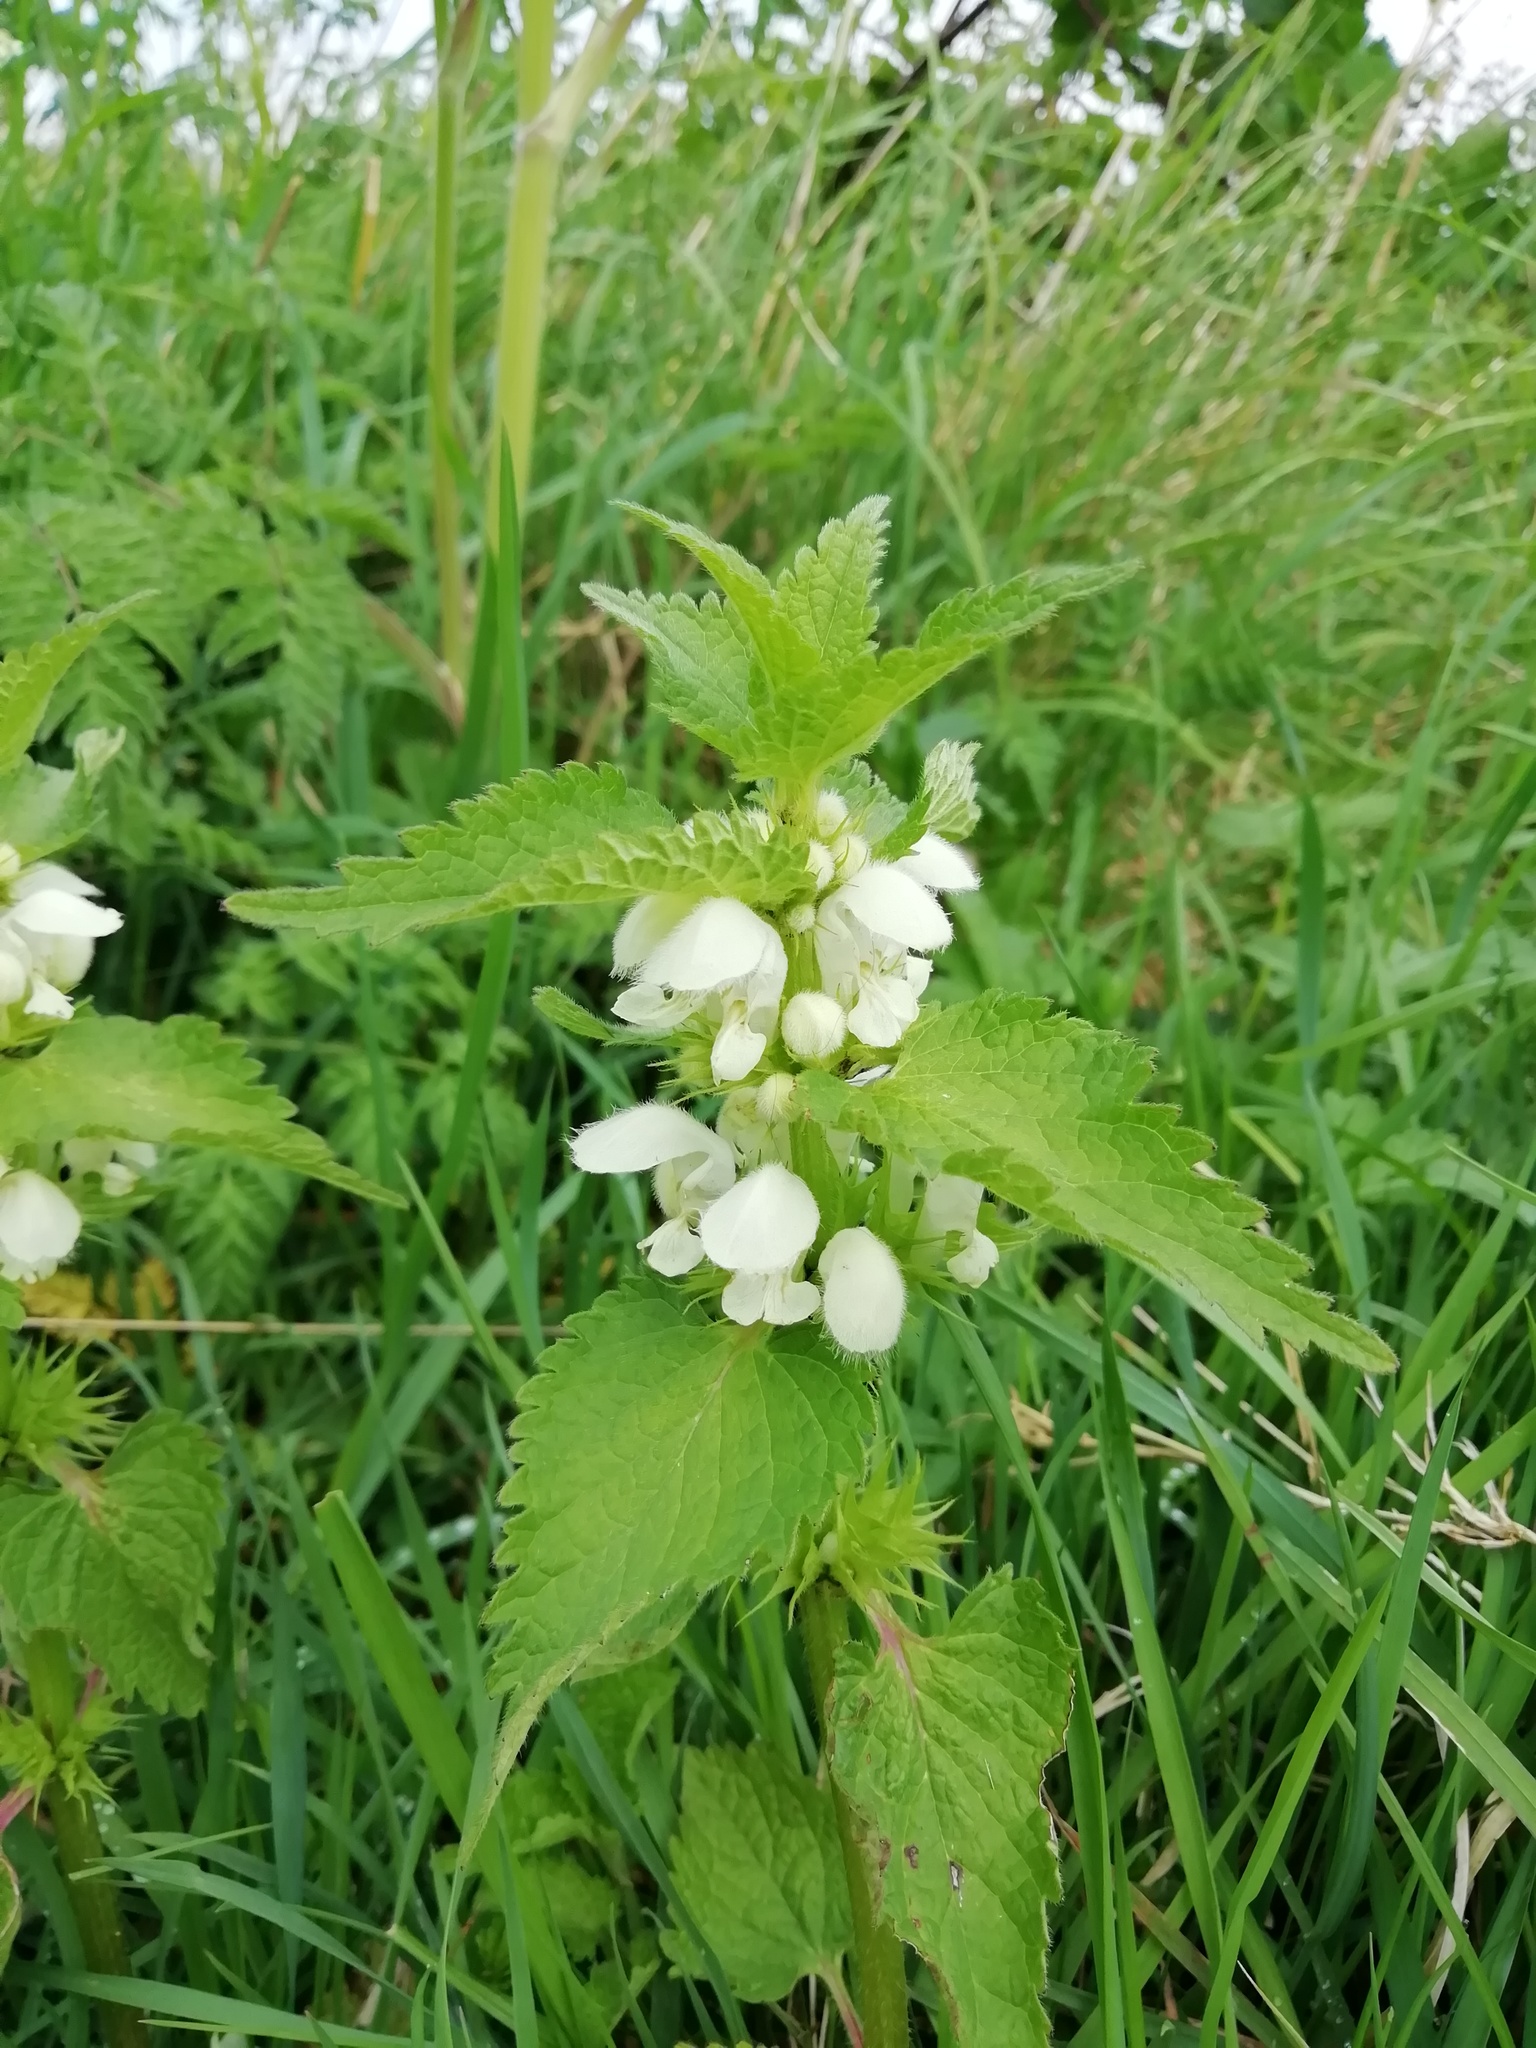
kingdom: Plantae
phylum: Tracheophyta
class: Magnoliopsida
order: Lamiales
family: Lamiaceae
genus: Lamium
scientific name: Lamium album
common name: White dead-nettle
